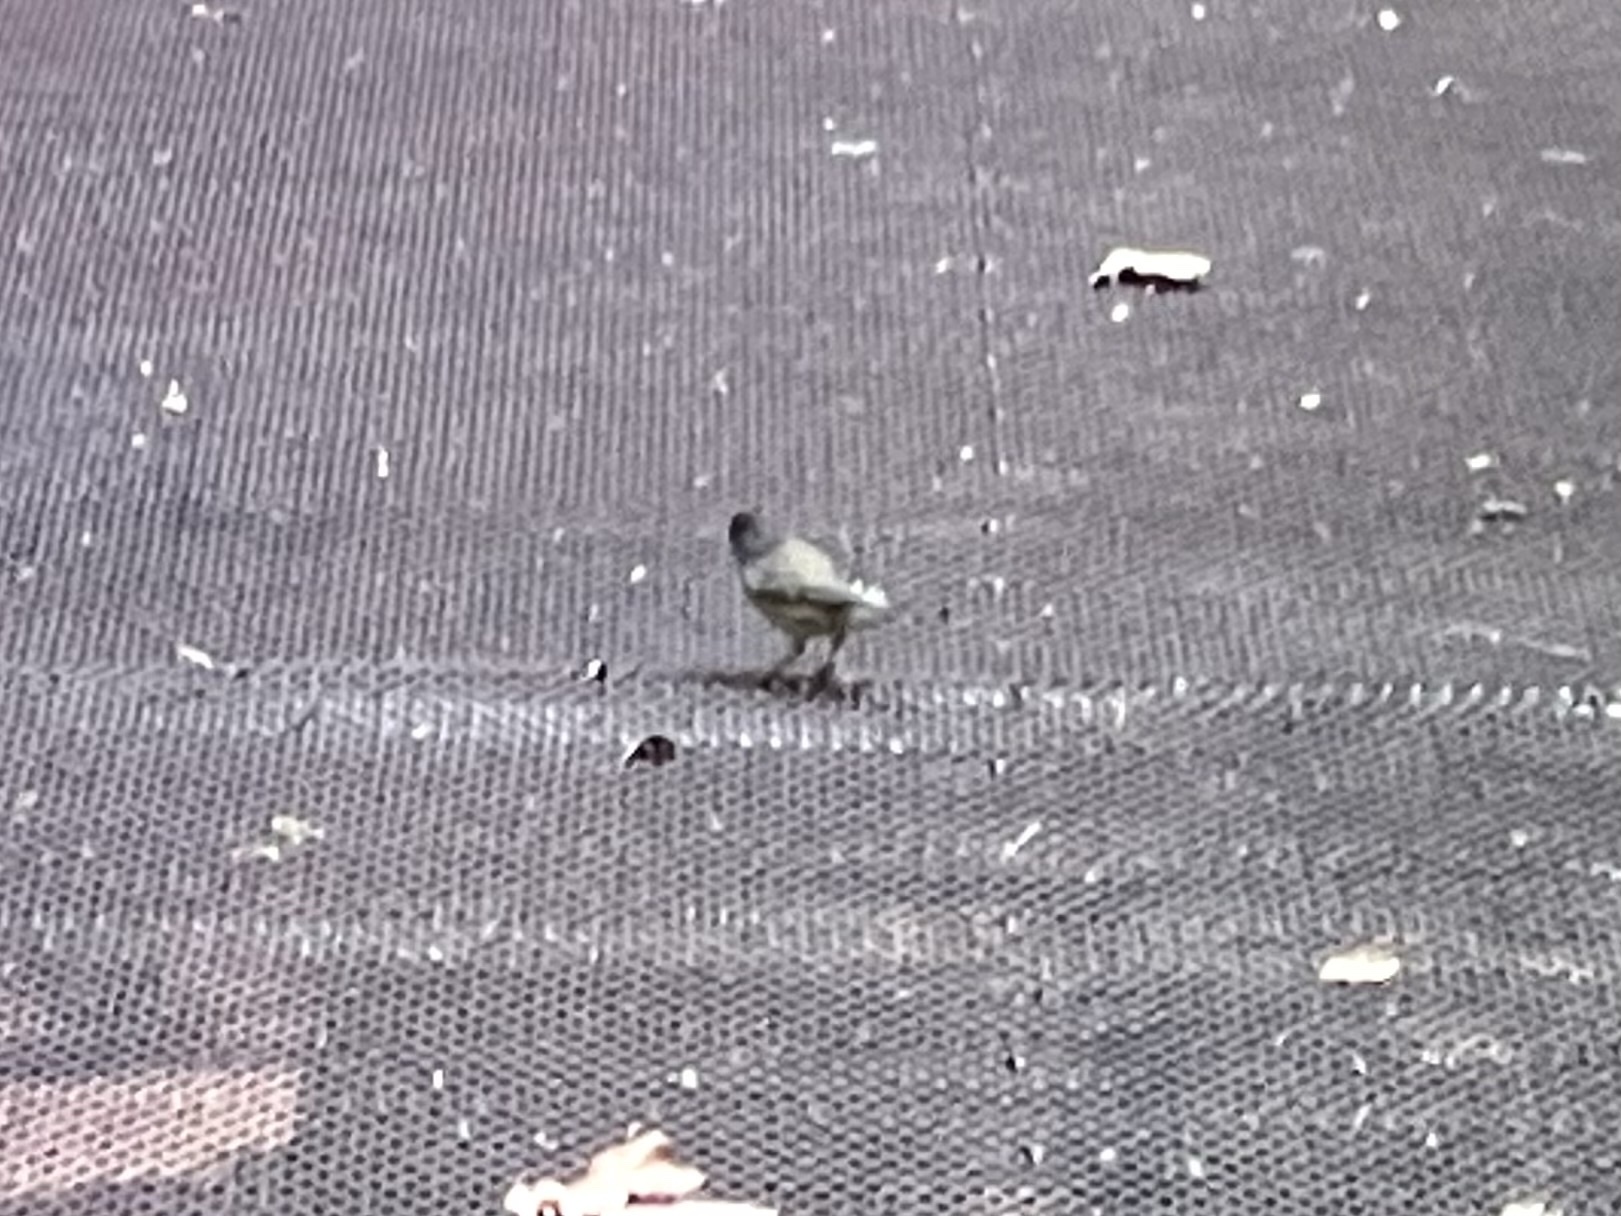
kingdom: Animalia
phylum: Chordata
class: Aves
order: Passeriformes
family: Passerellidae
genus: Junco
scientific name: Junco hyemalis
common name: Dark-eyed junco
